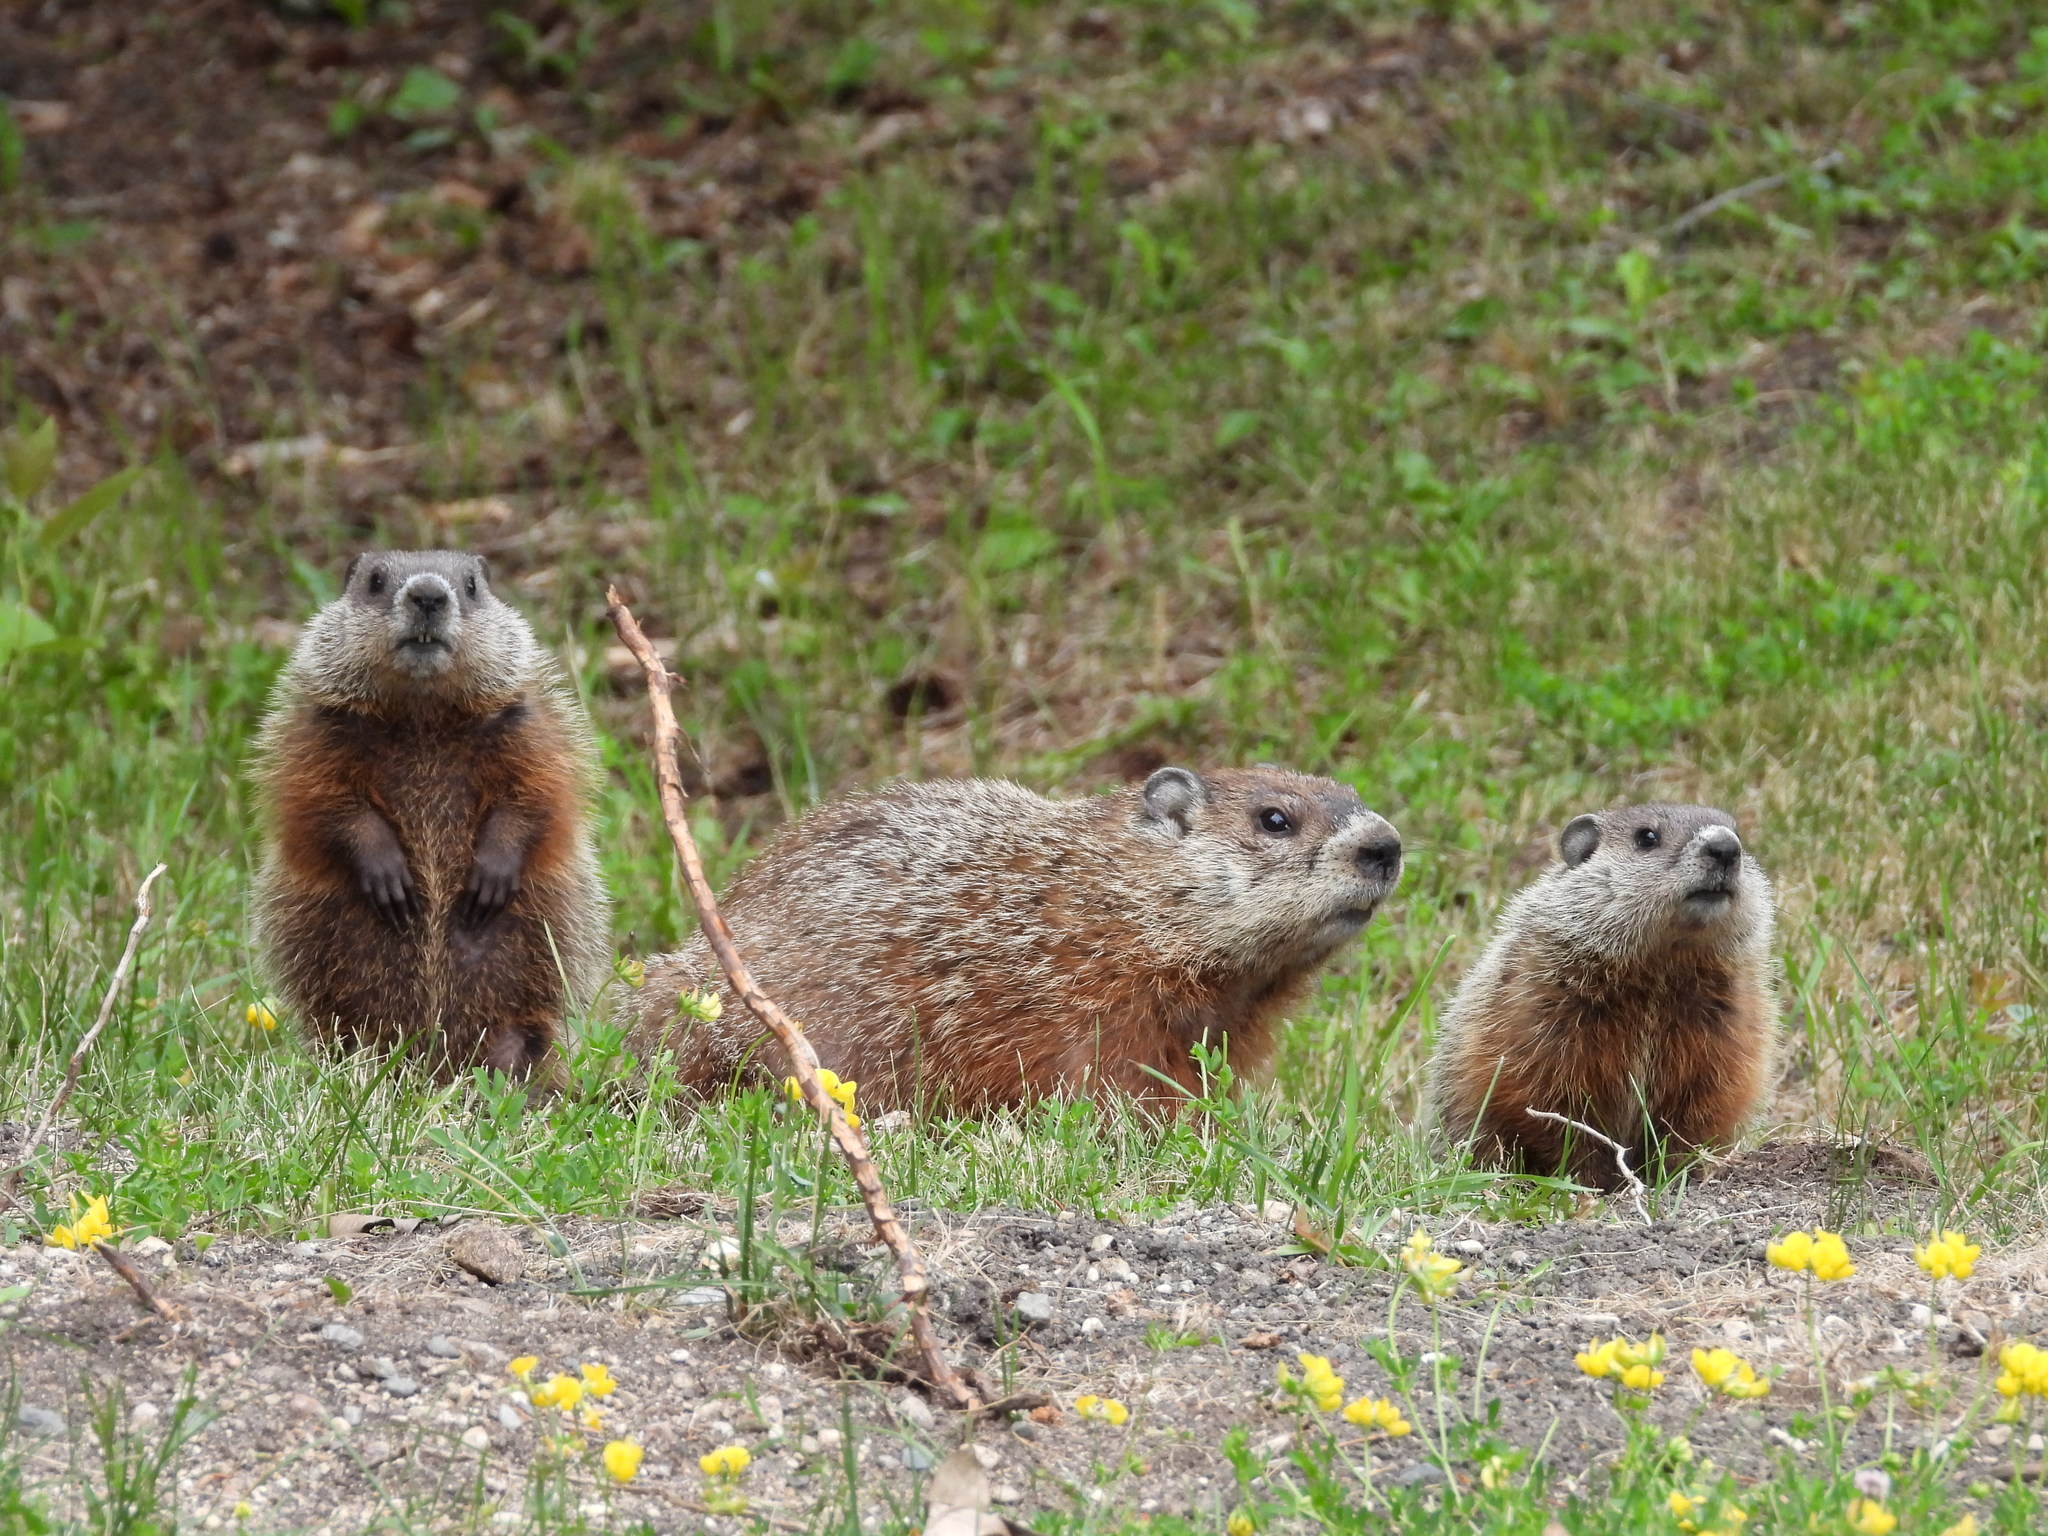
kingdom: Animalia
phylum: Chordata
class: Mammalia
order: Rodentia
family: Sciuridae
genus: Marmota
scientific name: Marmota monax
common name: Groundhog
